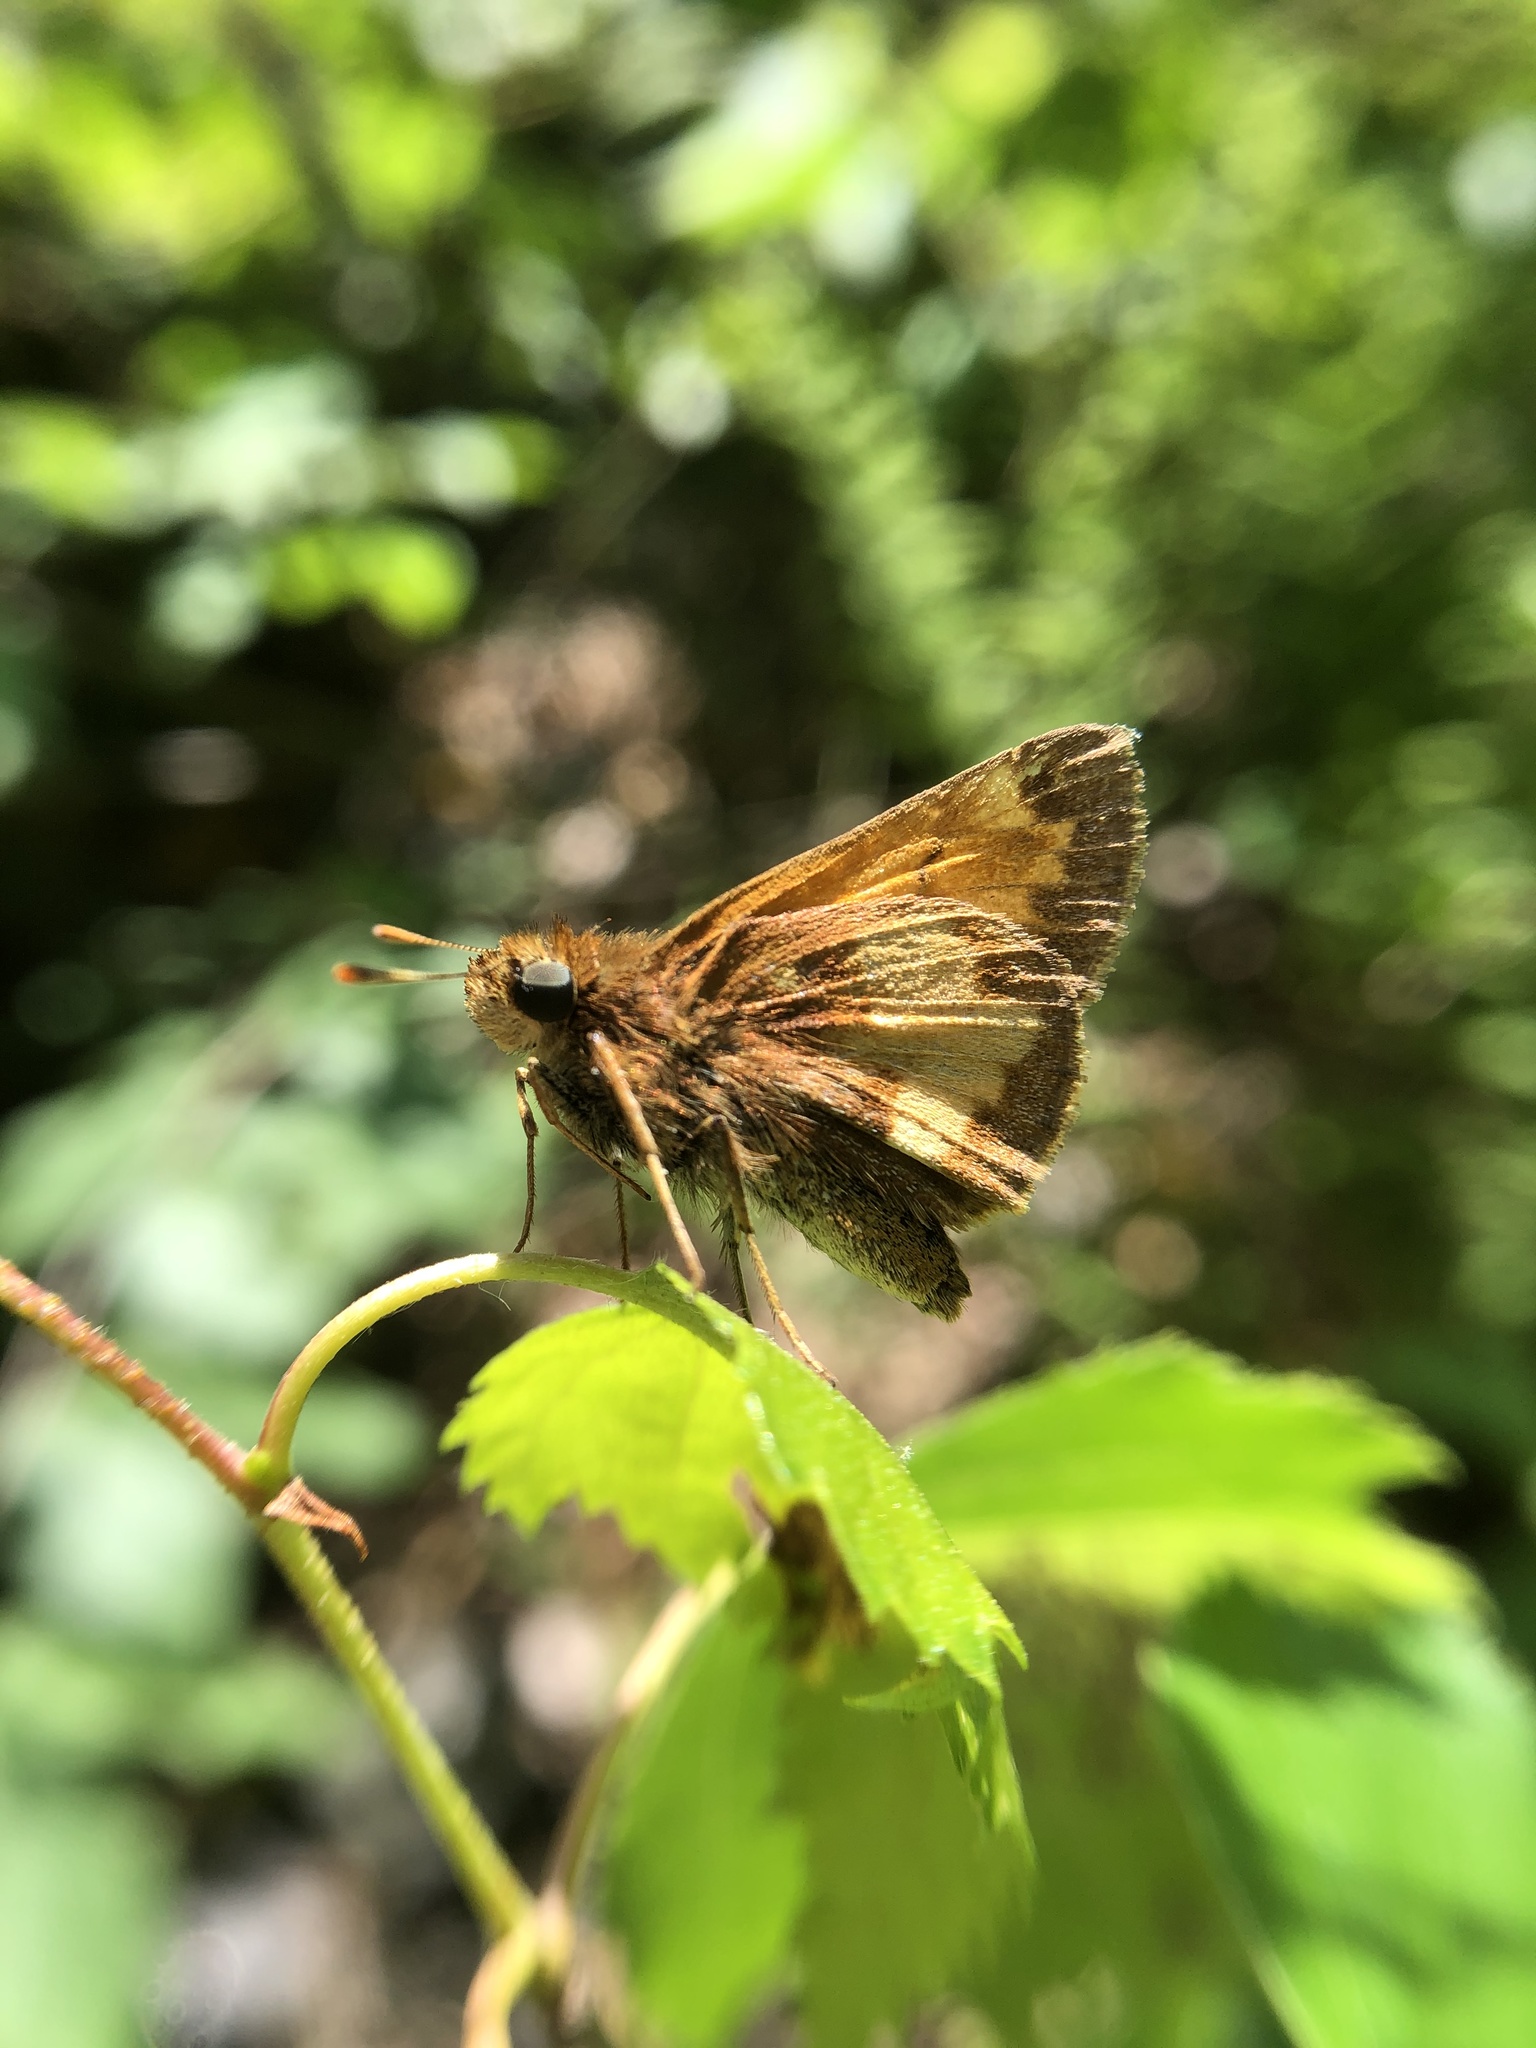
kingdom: Animalia
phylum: Arthropoda
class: Insecta
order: Lepidoptera
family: Hesperiidae
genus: Lon
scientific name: Lon hobomok
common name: Hobomok skipper
